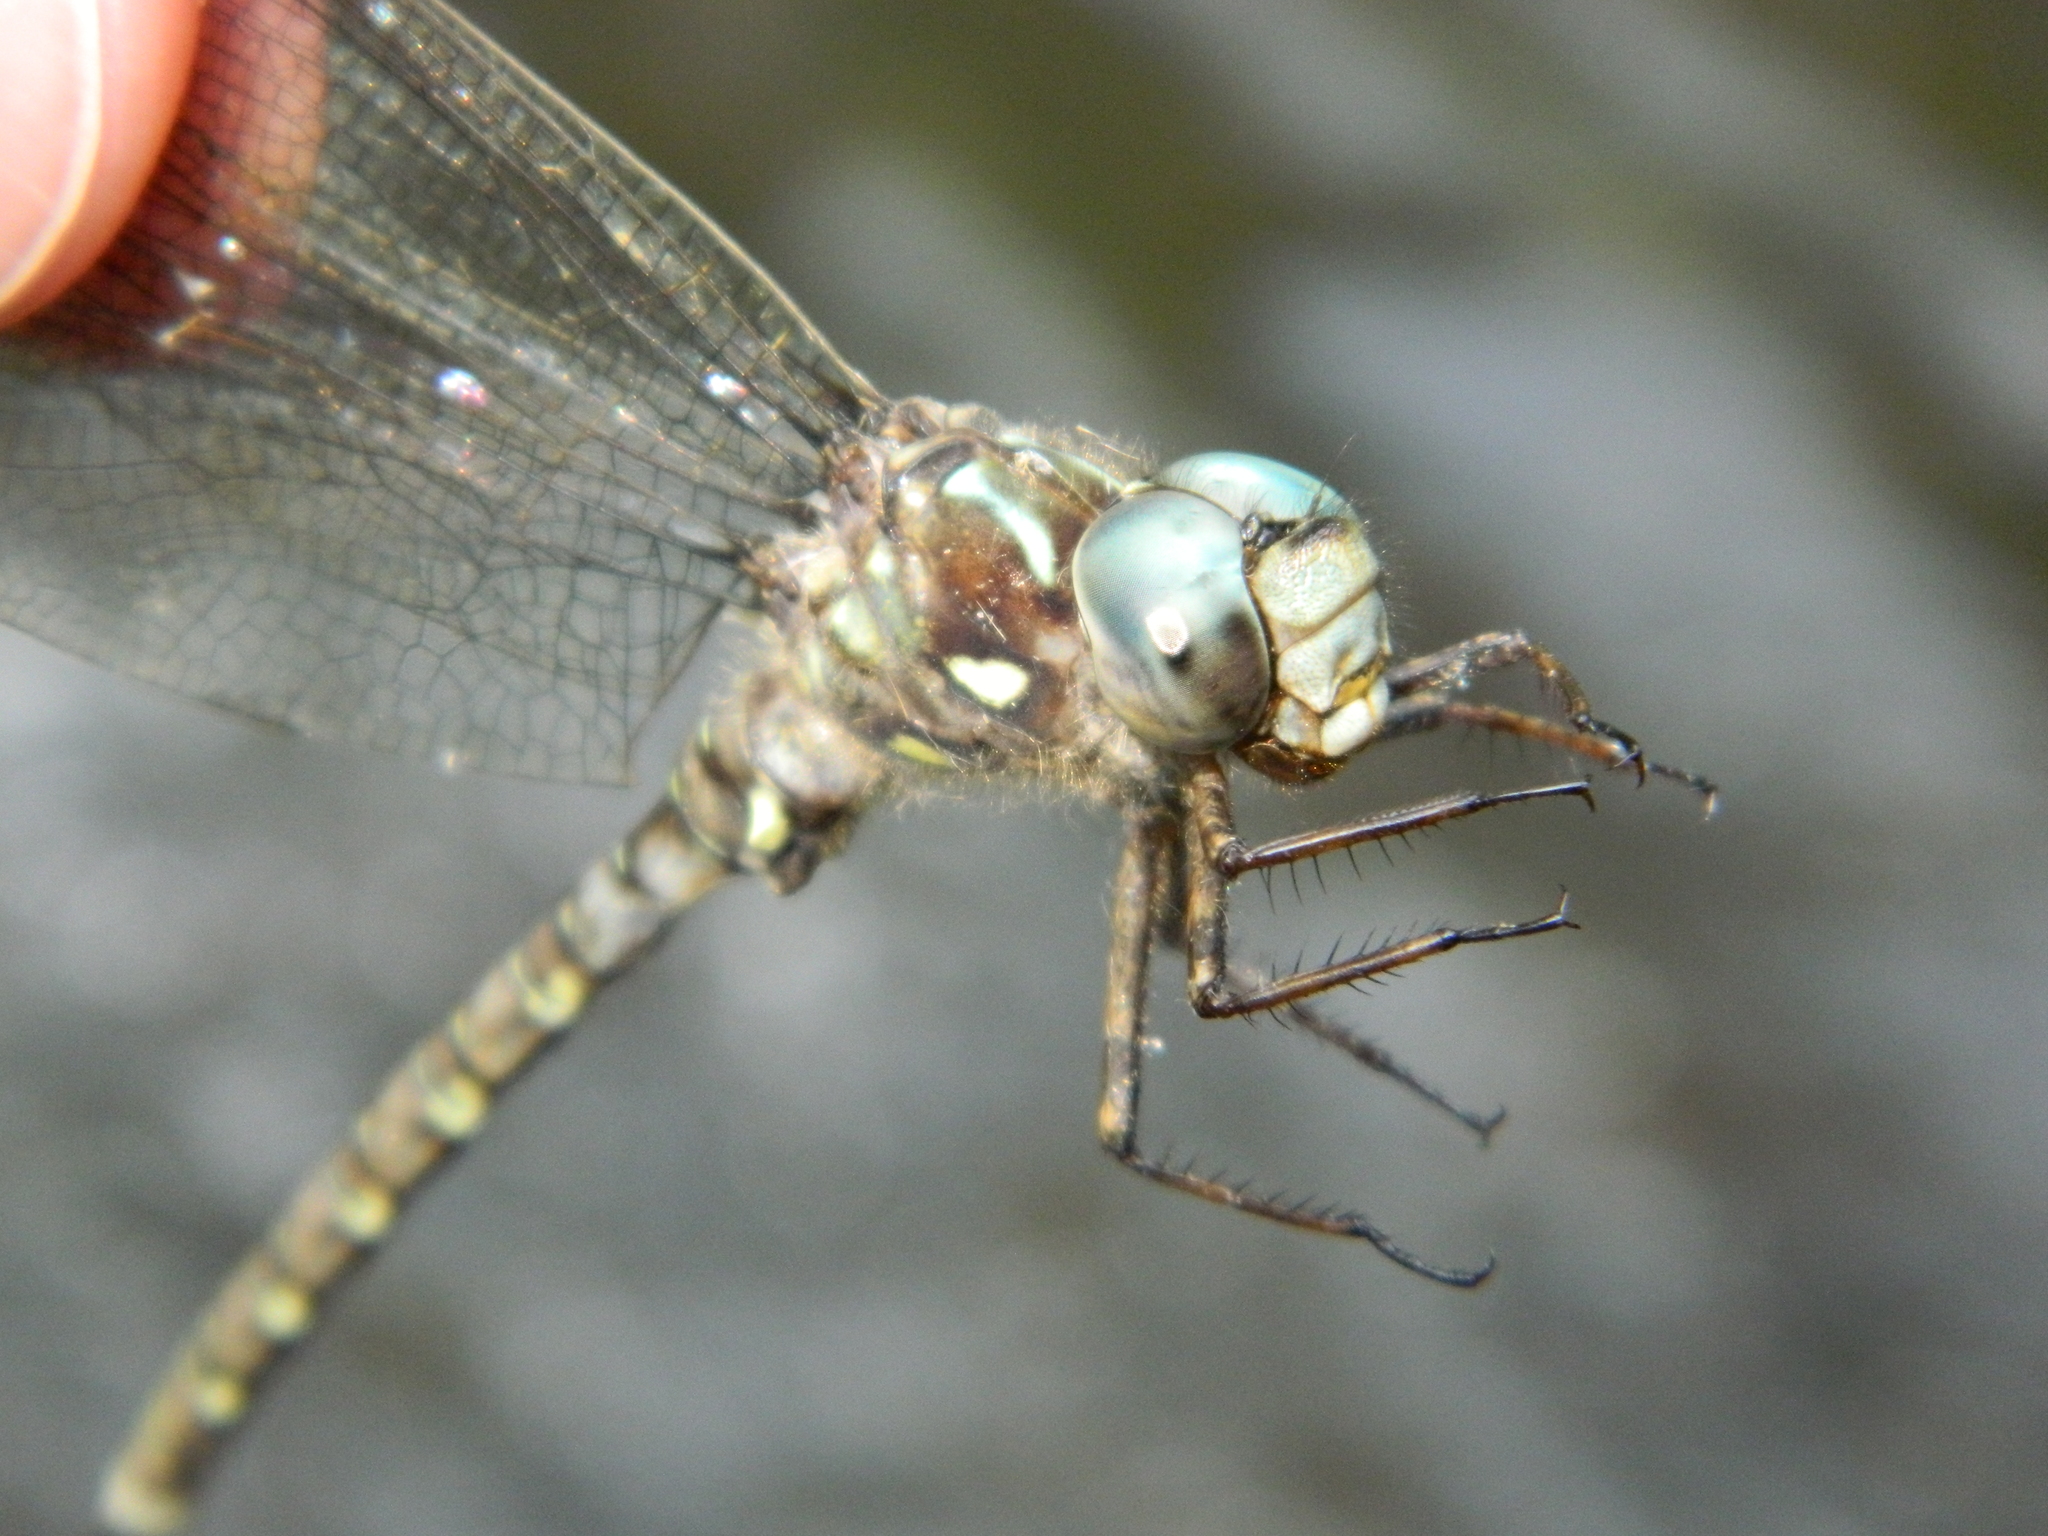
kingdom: Animalia
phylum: Arthropoda
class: Insecta
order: Odonata
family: Aeshnidae
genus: Boyeria
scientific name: Boyeria grafiana
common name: Ocellated darner
